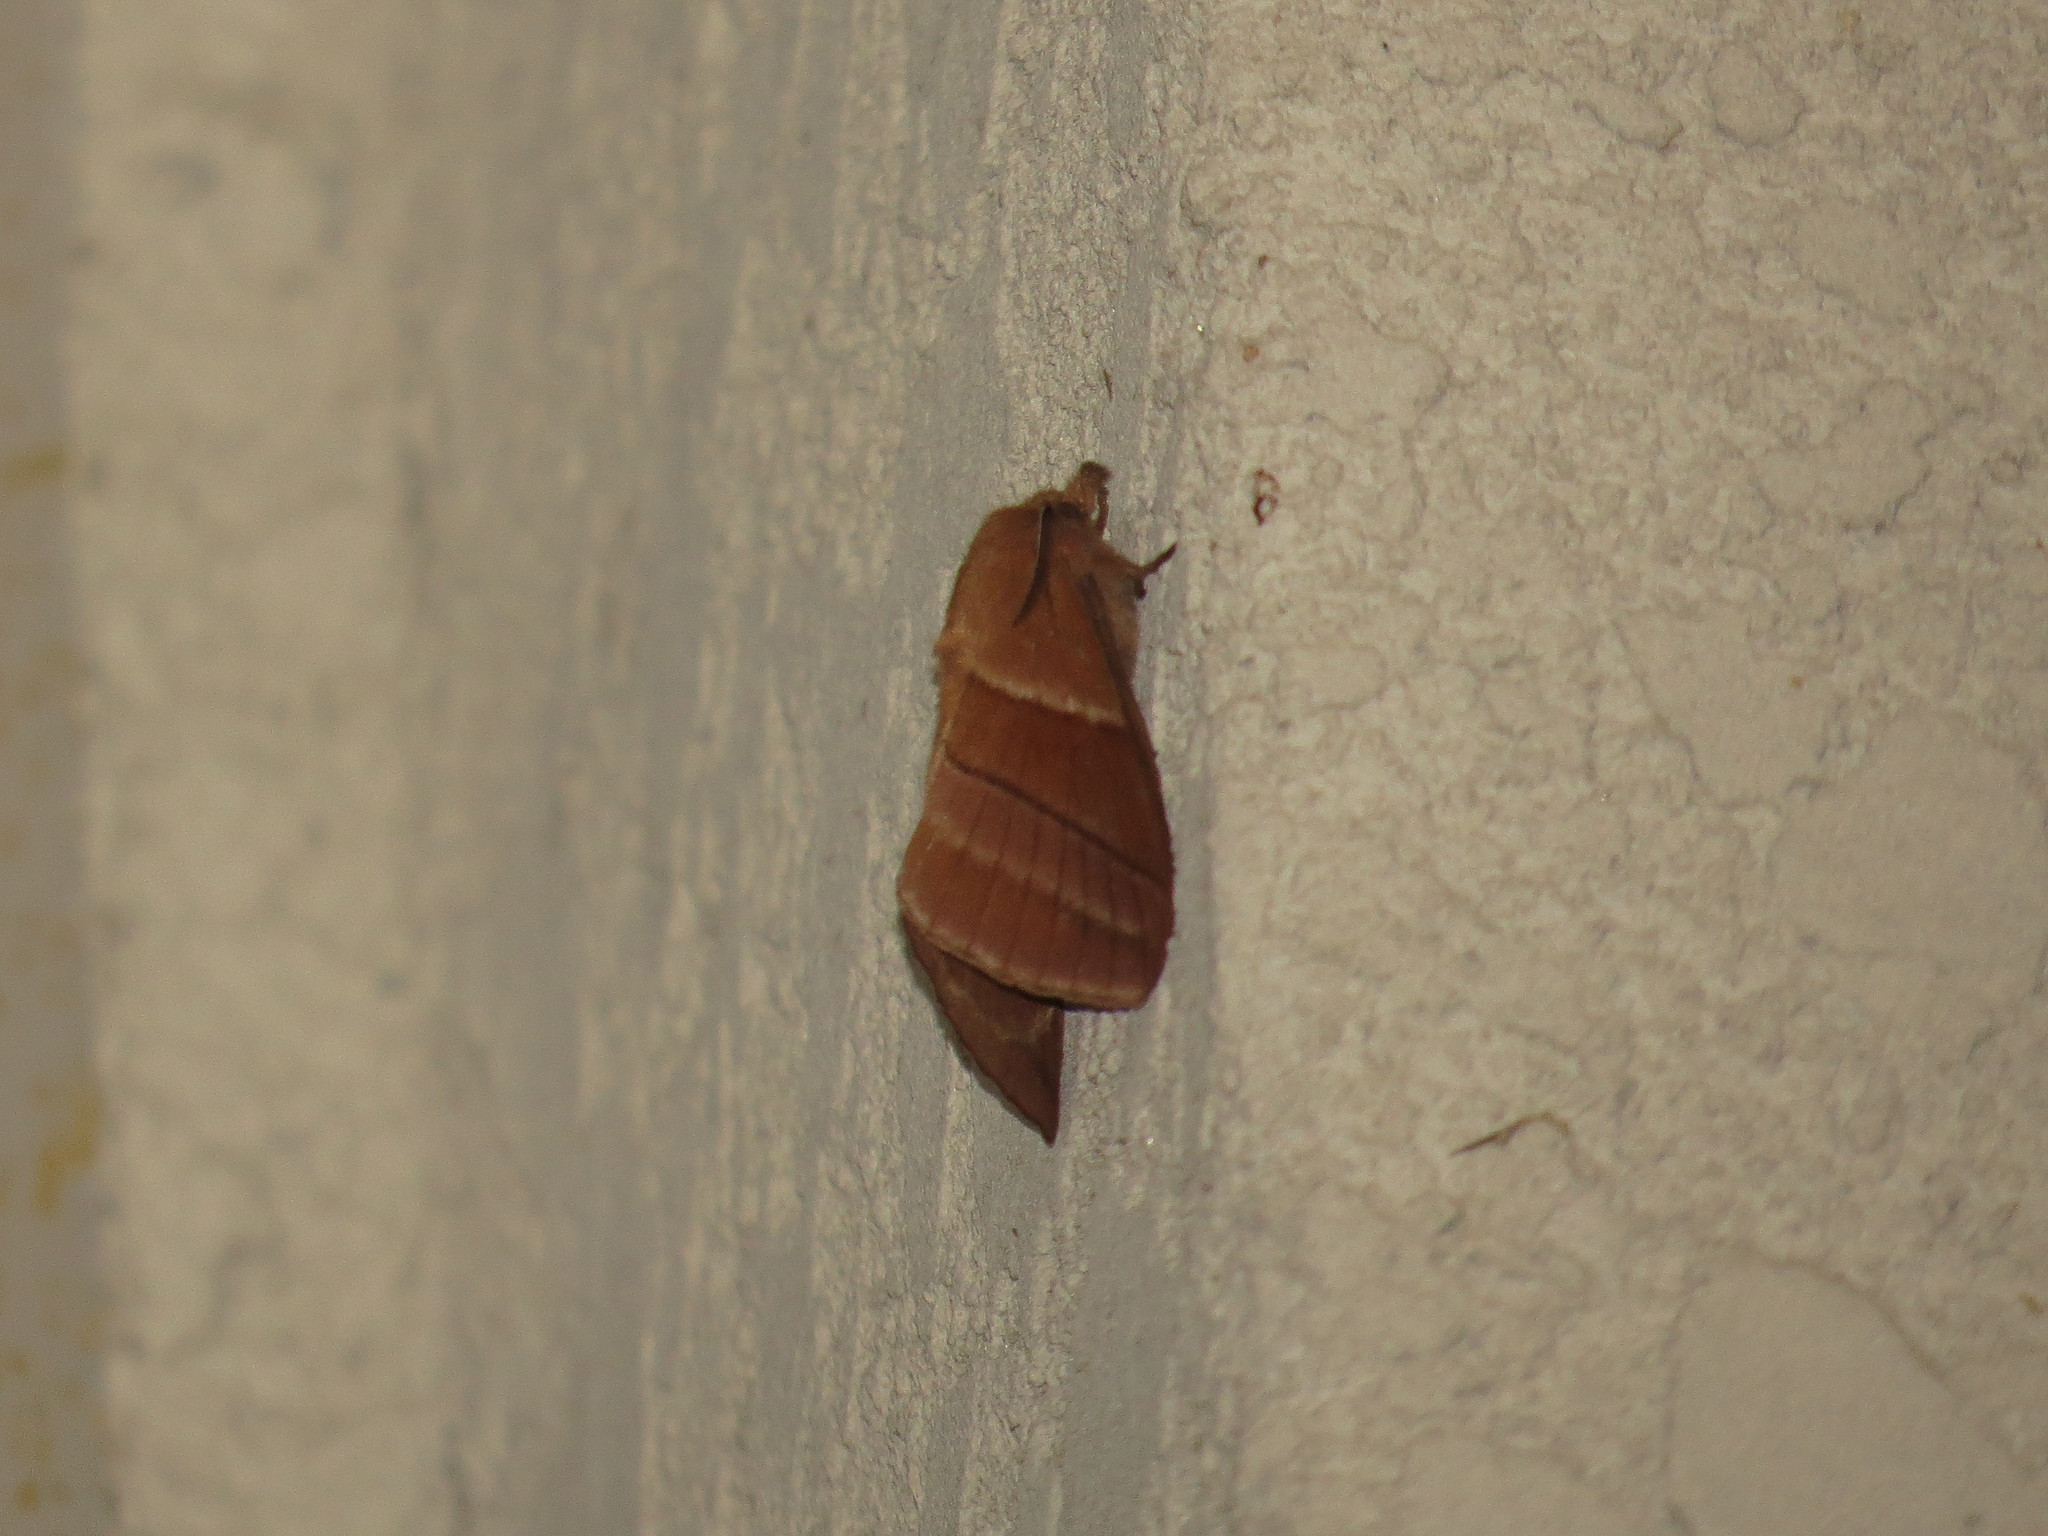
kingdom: Animalia
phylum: Arthropoda
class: Insecta
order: Lepidoptera
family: Lasiocampidae
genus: Syrastrenopsis
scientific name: Syrastrenopsis moltrechti
